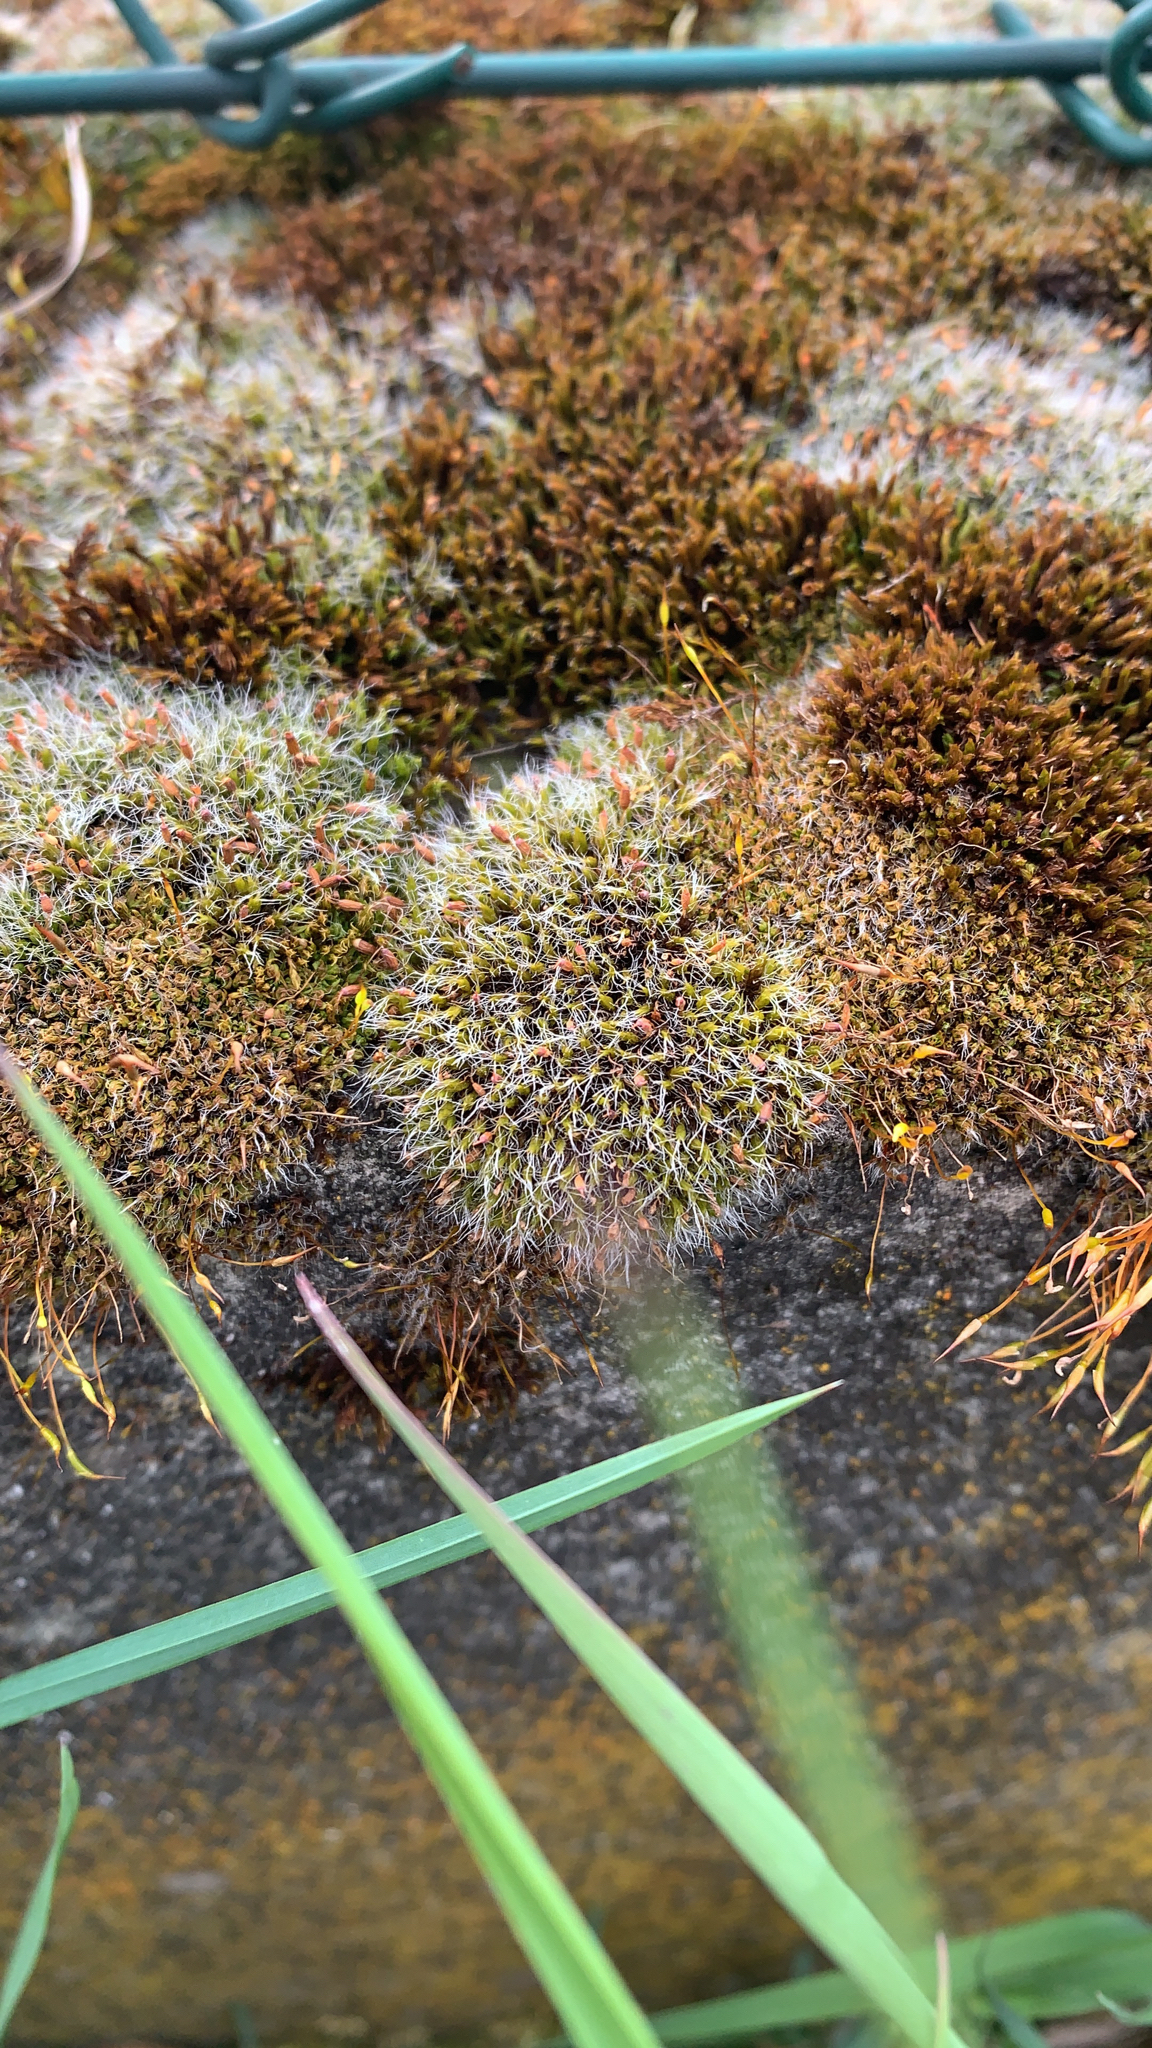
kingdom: Plantae
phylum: Bryophyta
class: Bryopsida
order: Grimmiales
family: Grimmiaceae
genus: Grimmia
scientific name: Grimmia pulvinata
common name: Grey-cushioned grimmia
